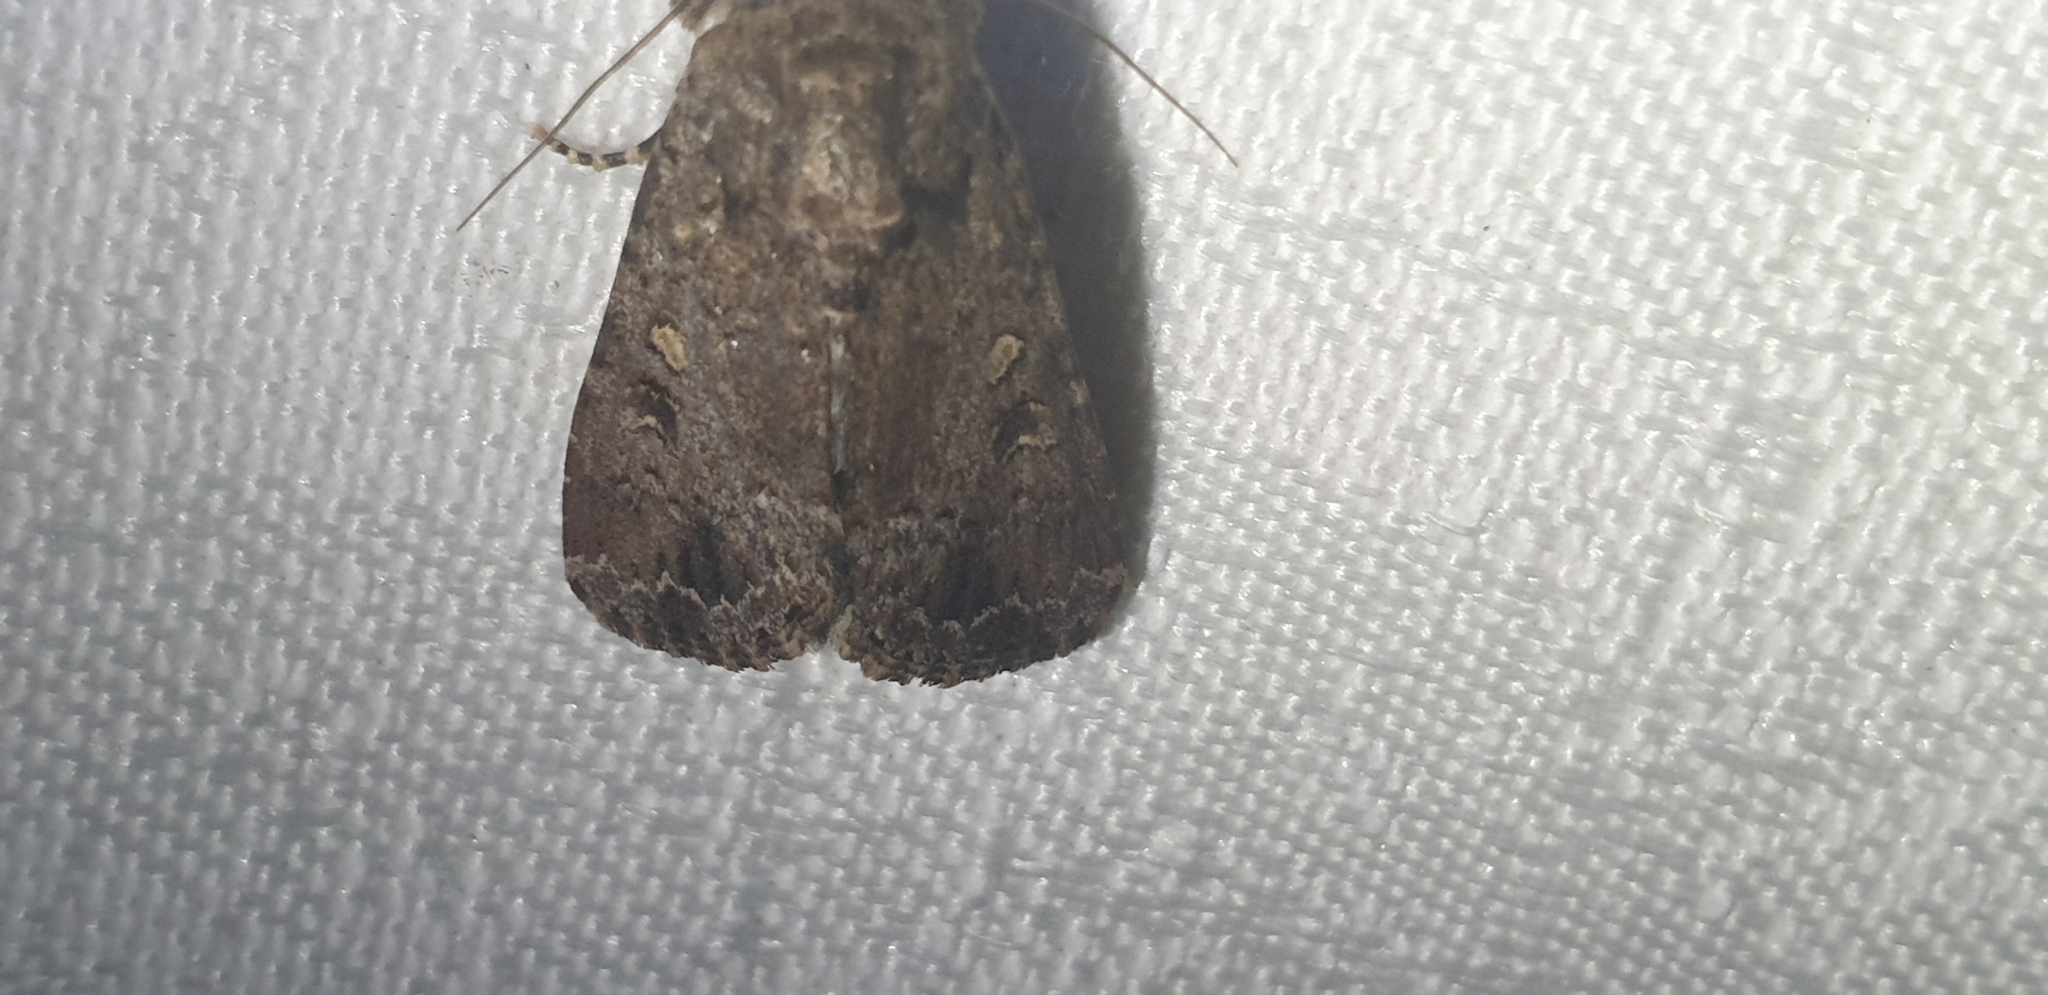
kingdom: Animalia
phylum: Arthropoda
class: Insecta
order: Lepidoptera
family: Noctuidae
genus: Spodoptera
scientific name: Spodoptera mauritia
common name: Lawn armyworm
